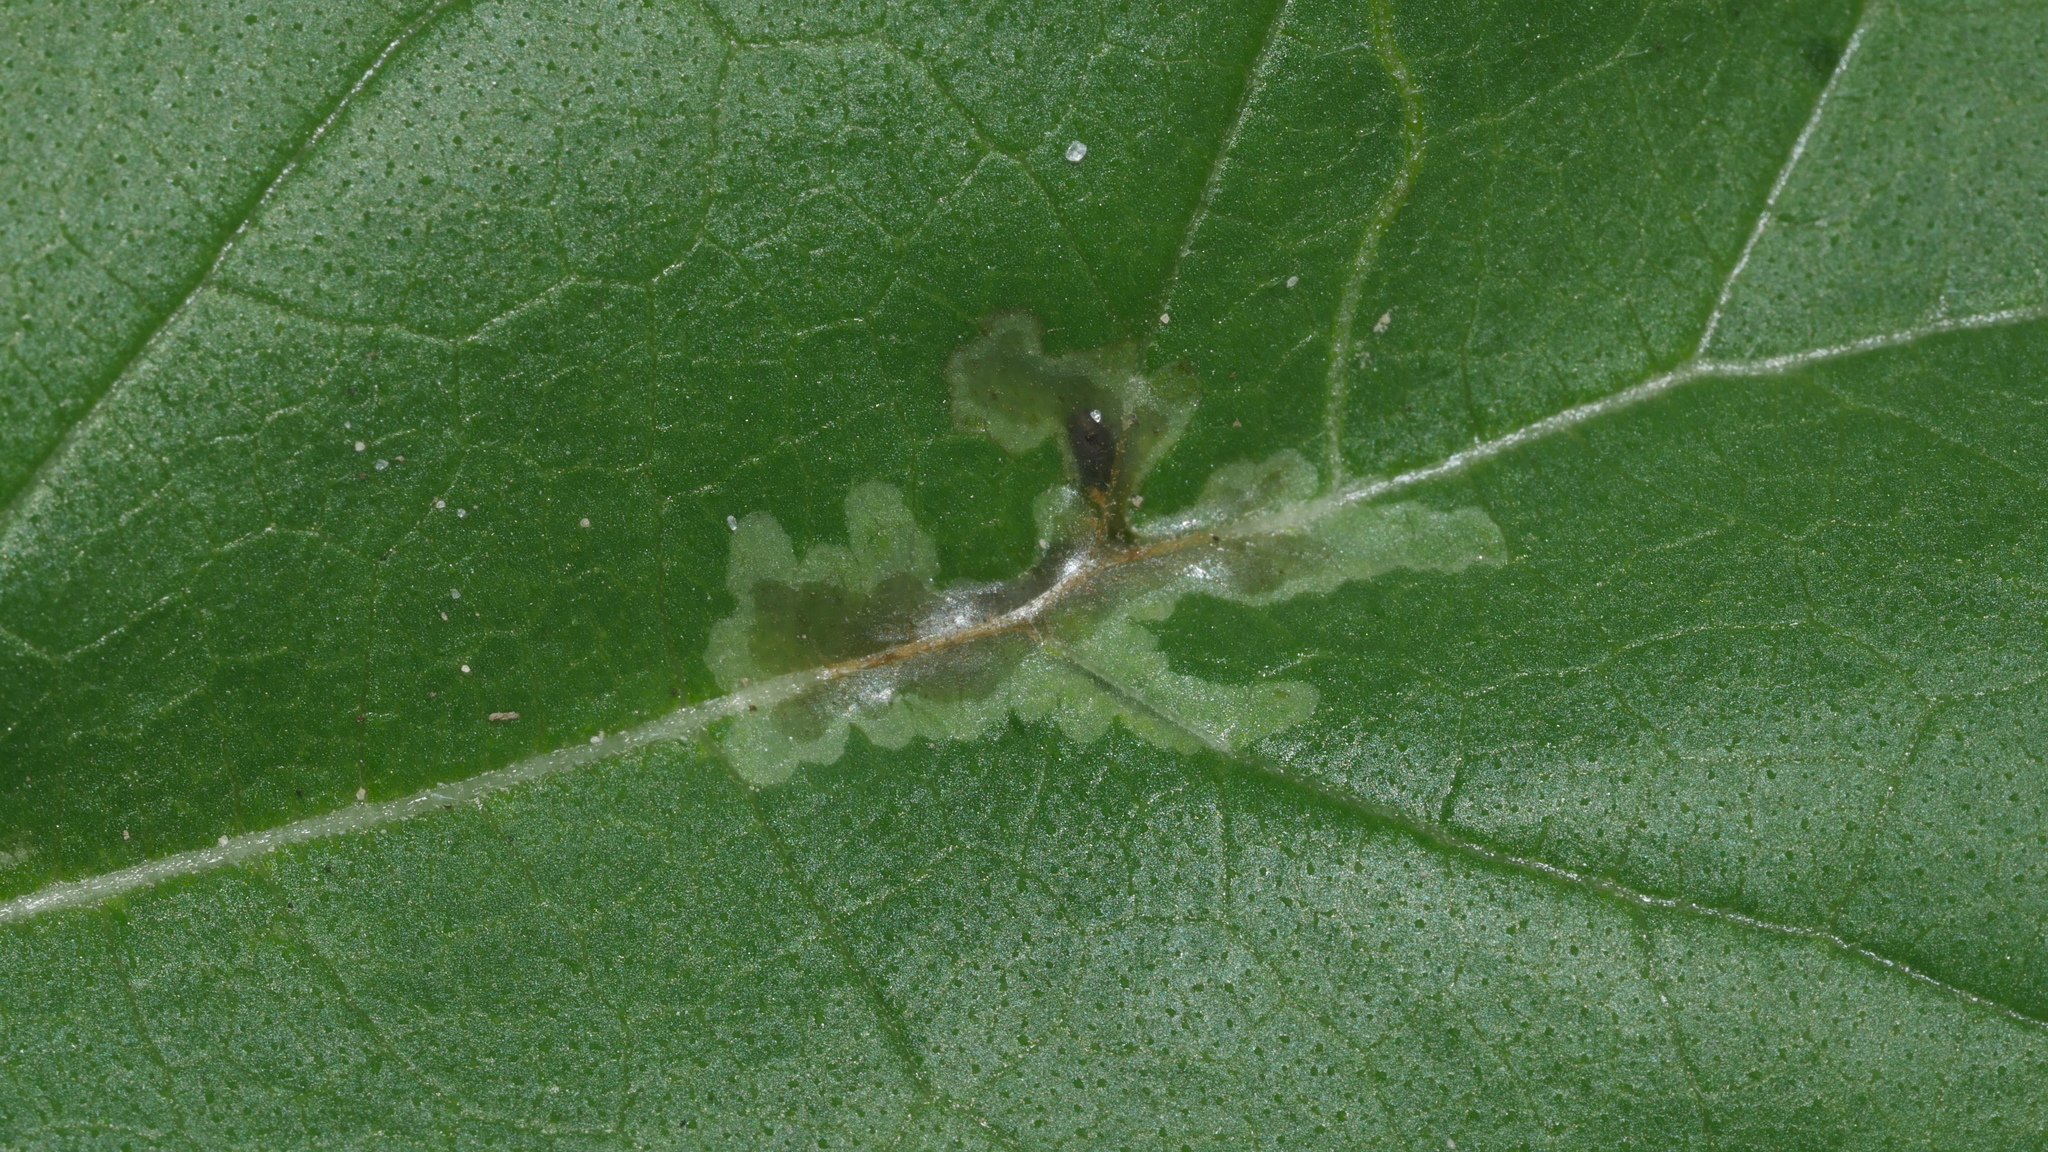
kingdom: Animalia
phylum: Arthropoda
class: Insecta
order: Diptera
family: Agromyzidae
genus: Calycomyza
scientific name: Calycomyza platyptera
